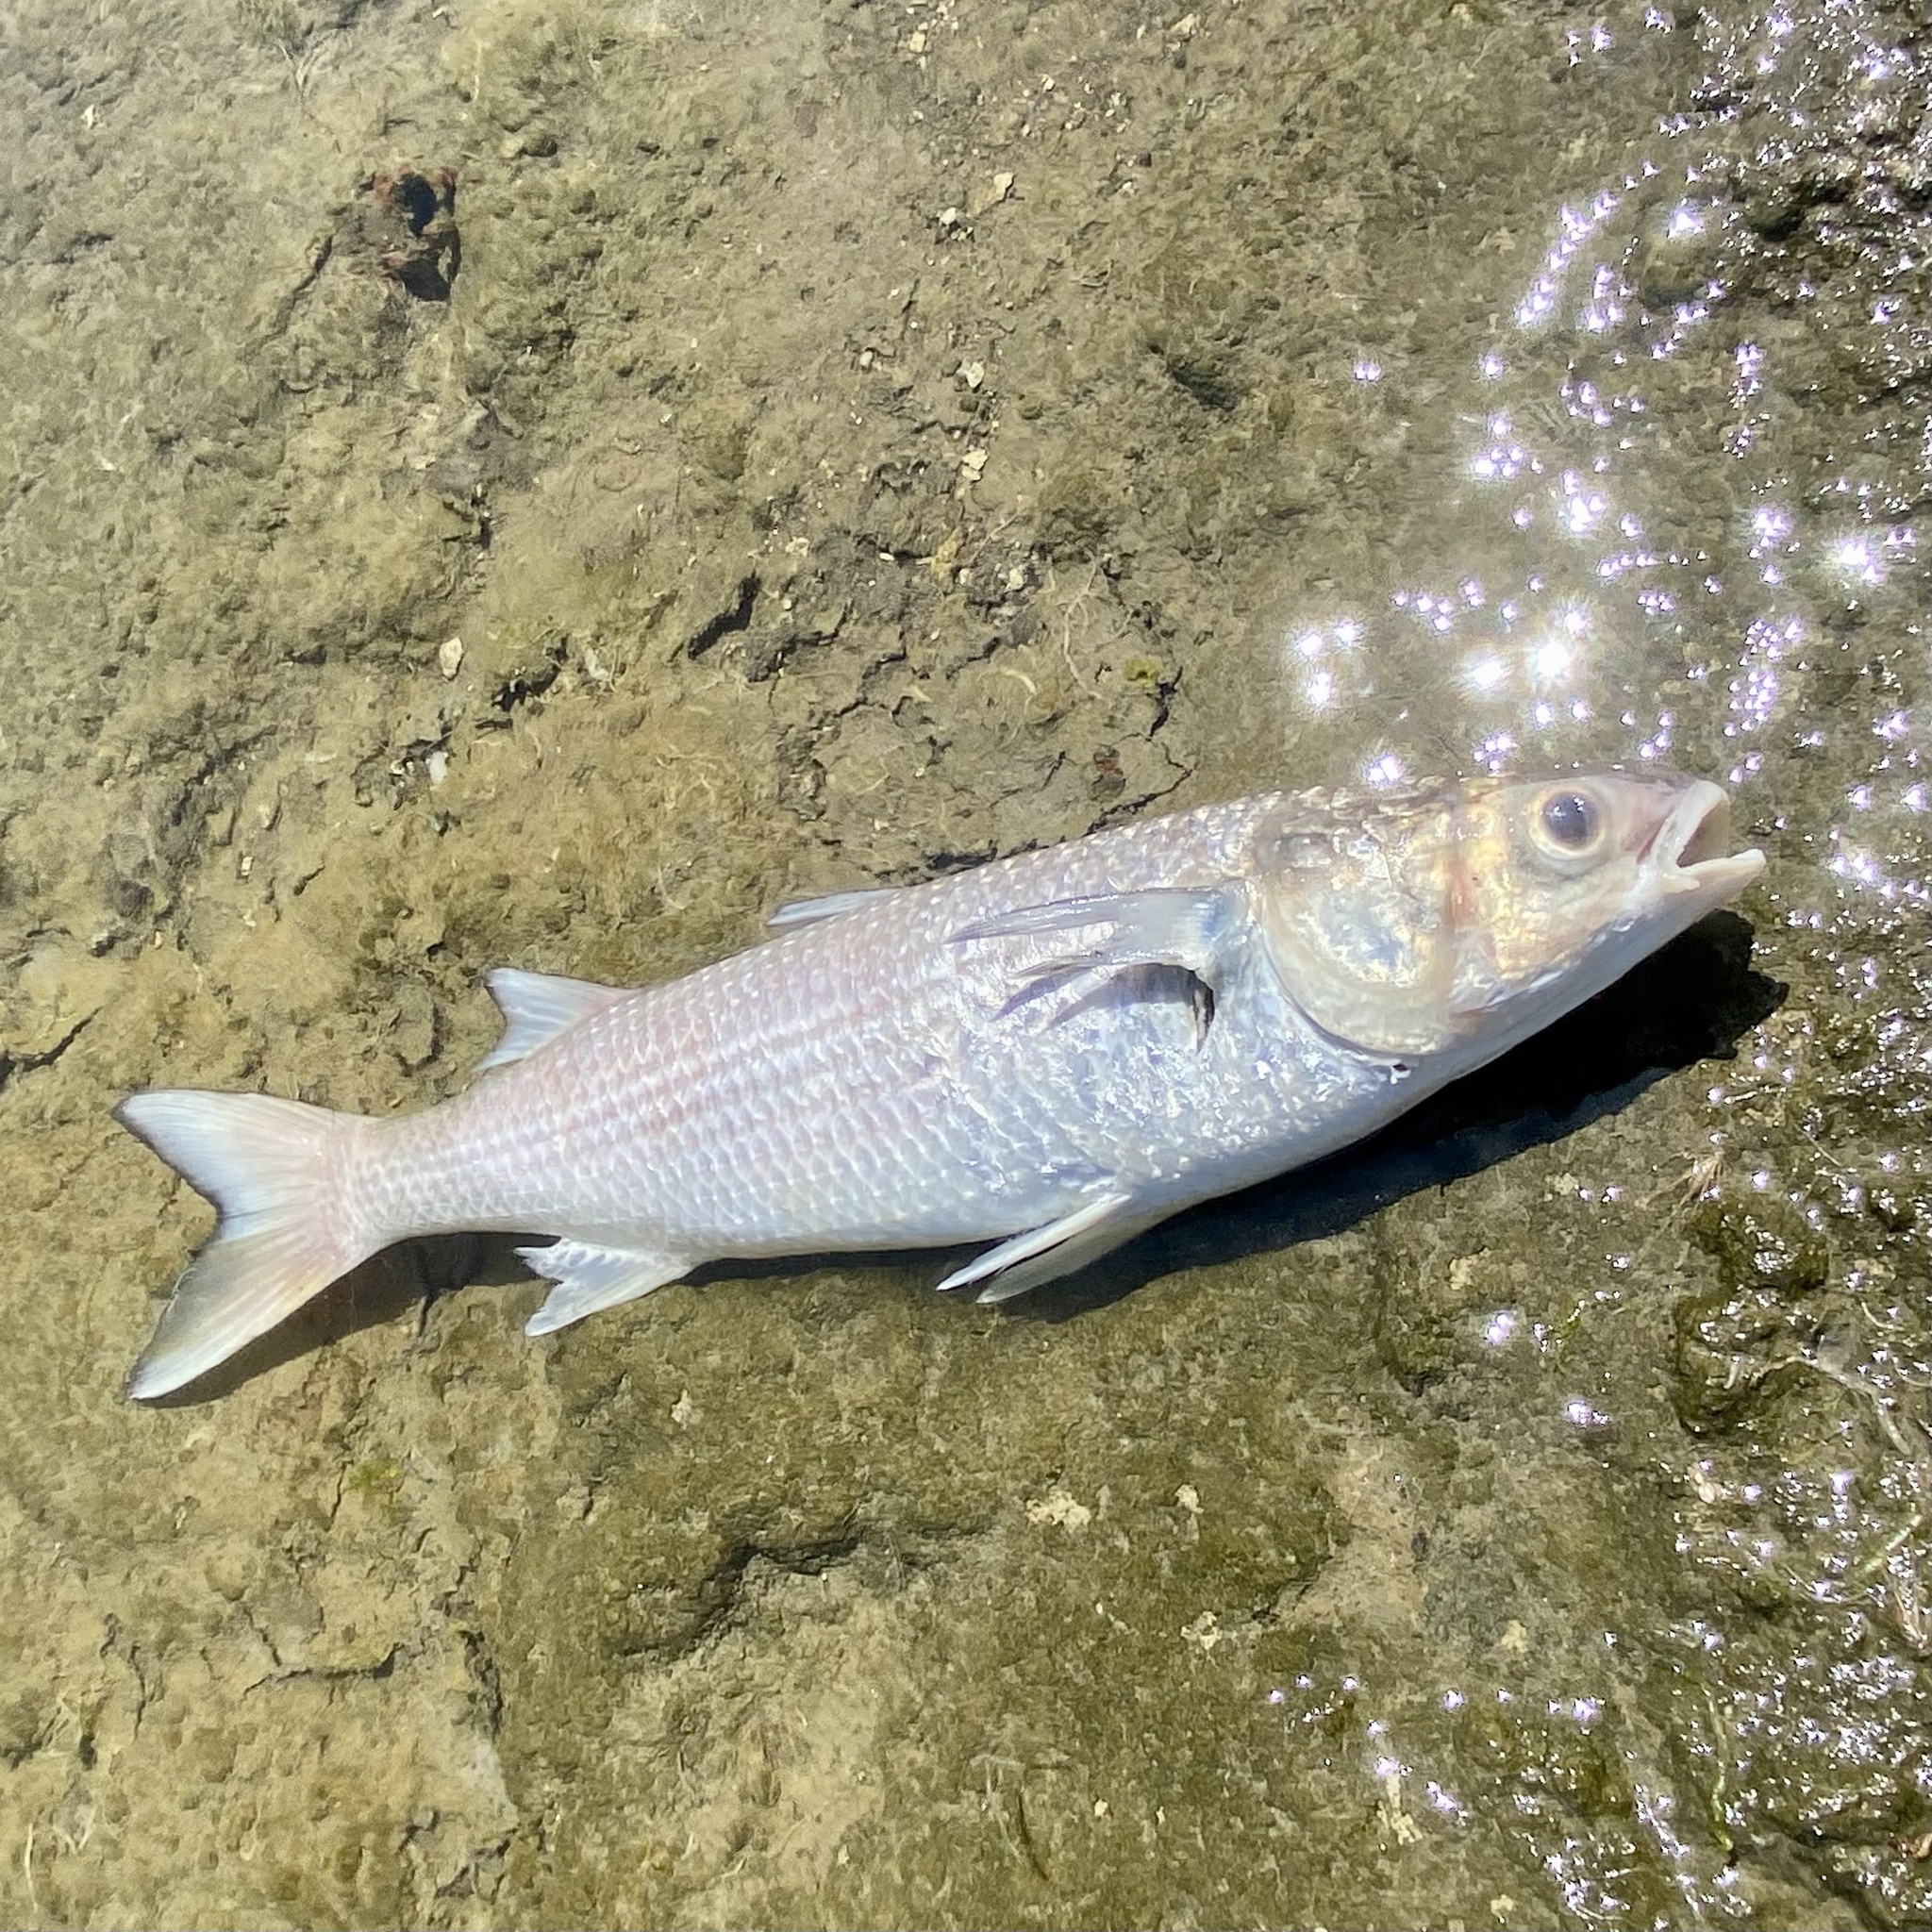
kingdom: Animalia
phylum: Chordata
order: Mugiliformes
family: Mugilidae
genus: Mugil
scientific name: Mugil cephalus
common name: Grey mullet
